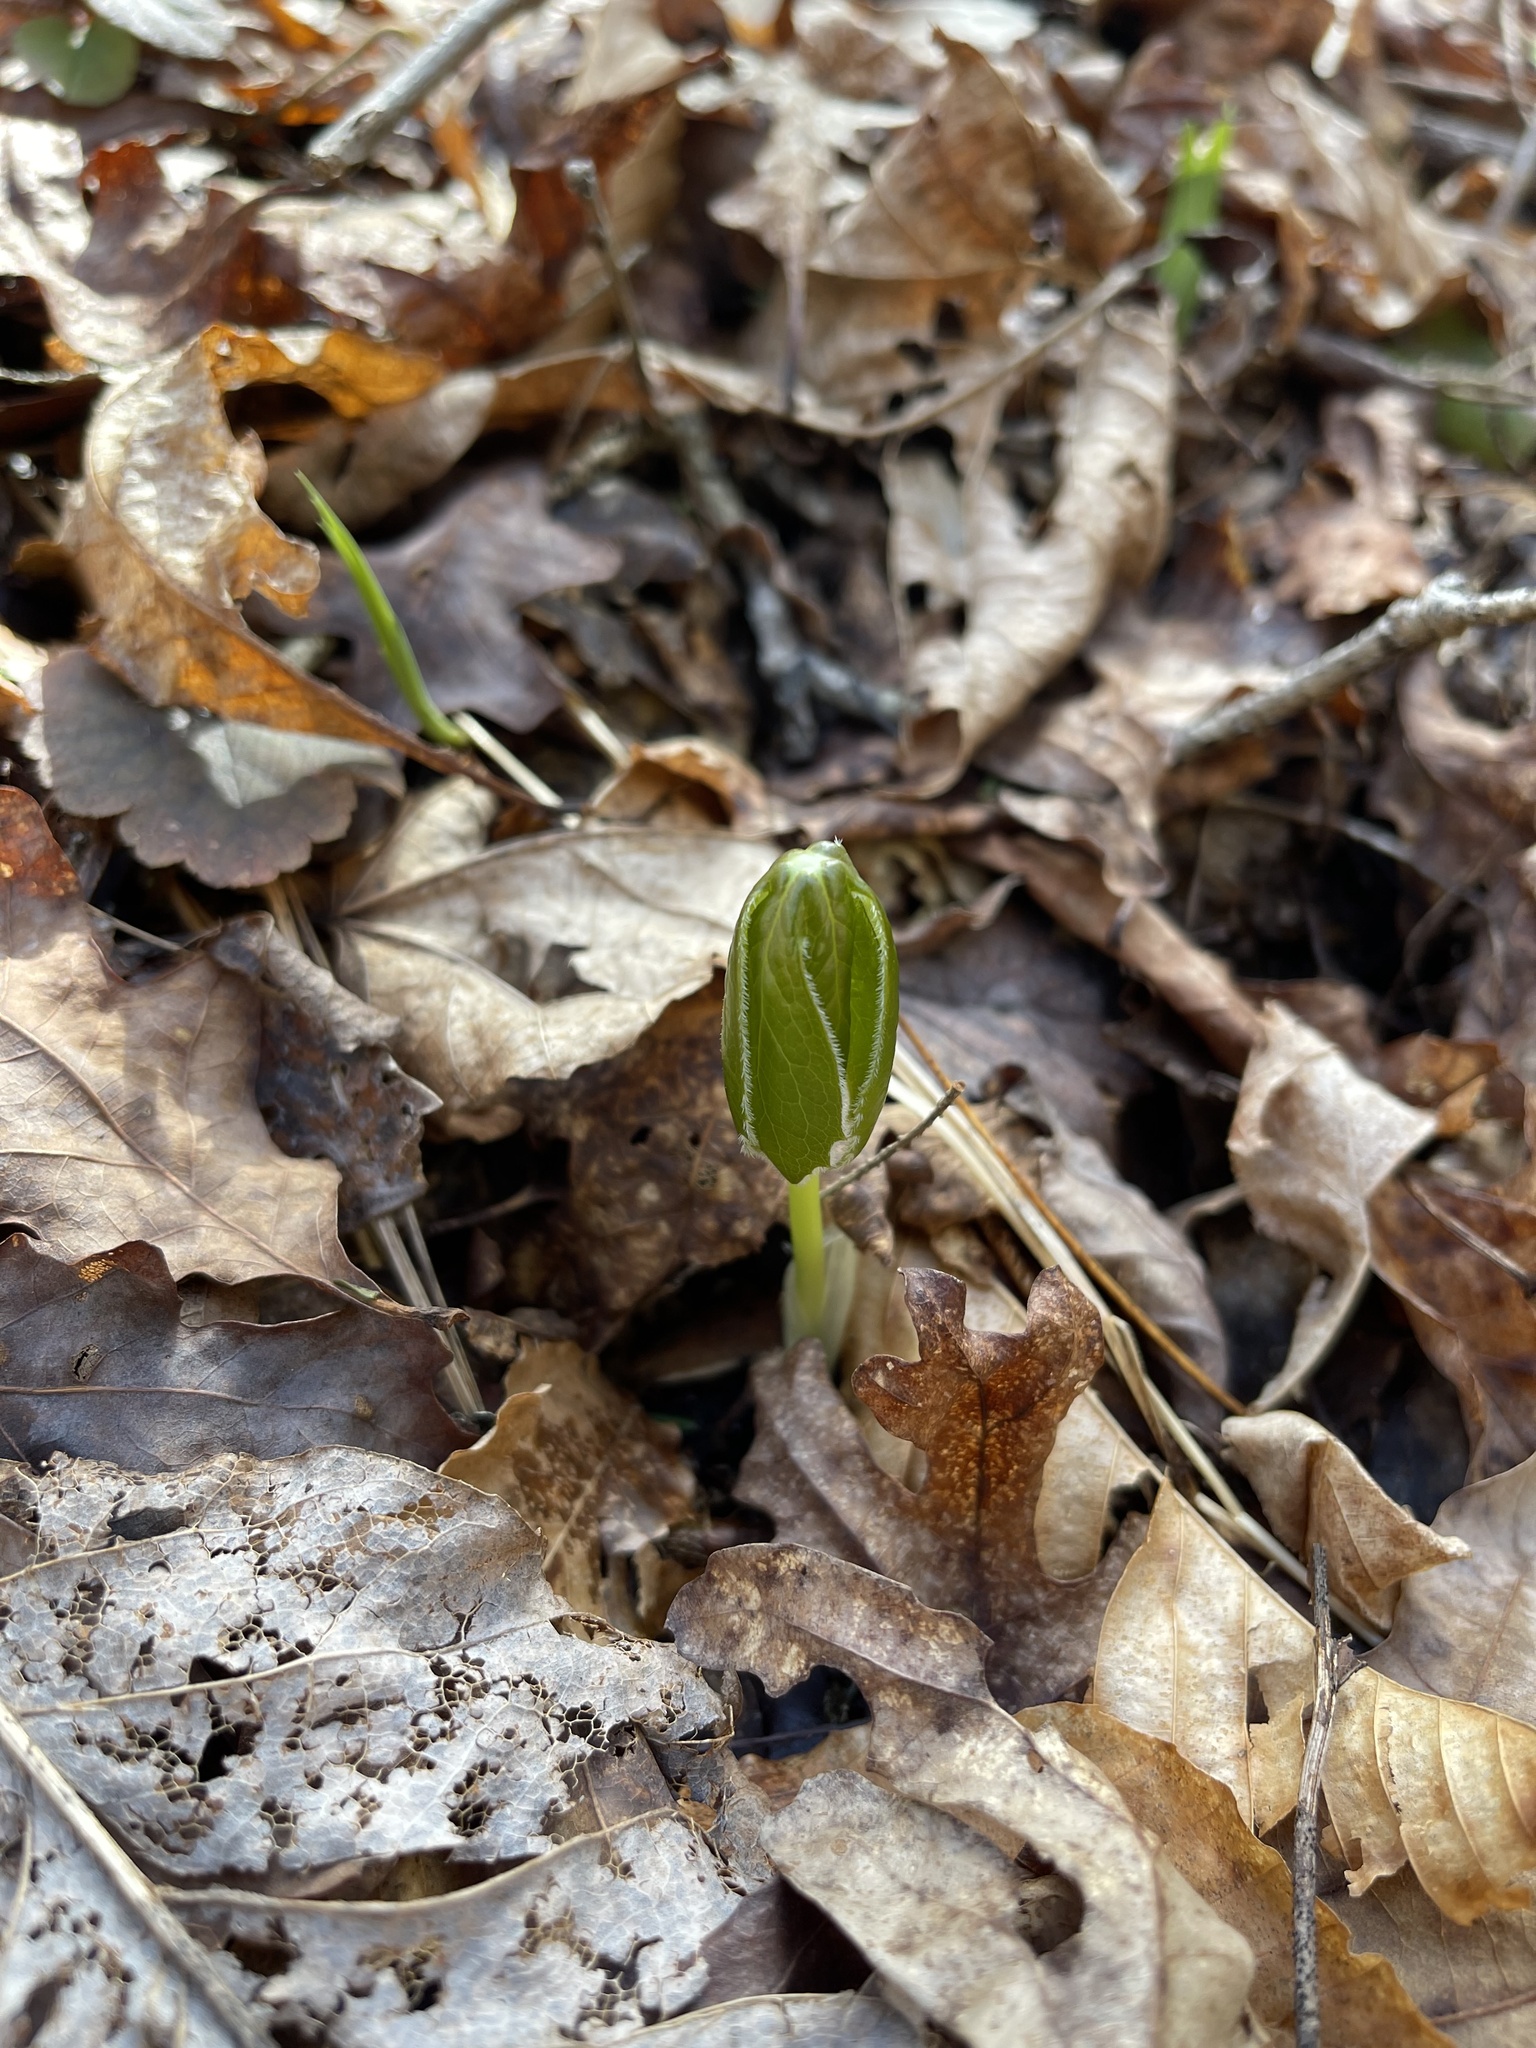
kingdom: Plantae
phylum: Tracheophyta
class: Magnoliopsida
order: Ranunculales
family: Berberidaceae
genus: Podophyllum
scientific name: Podophyllum peltatum
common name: Wild mandrake
